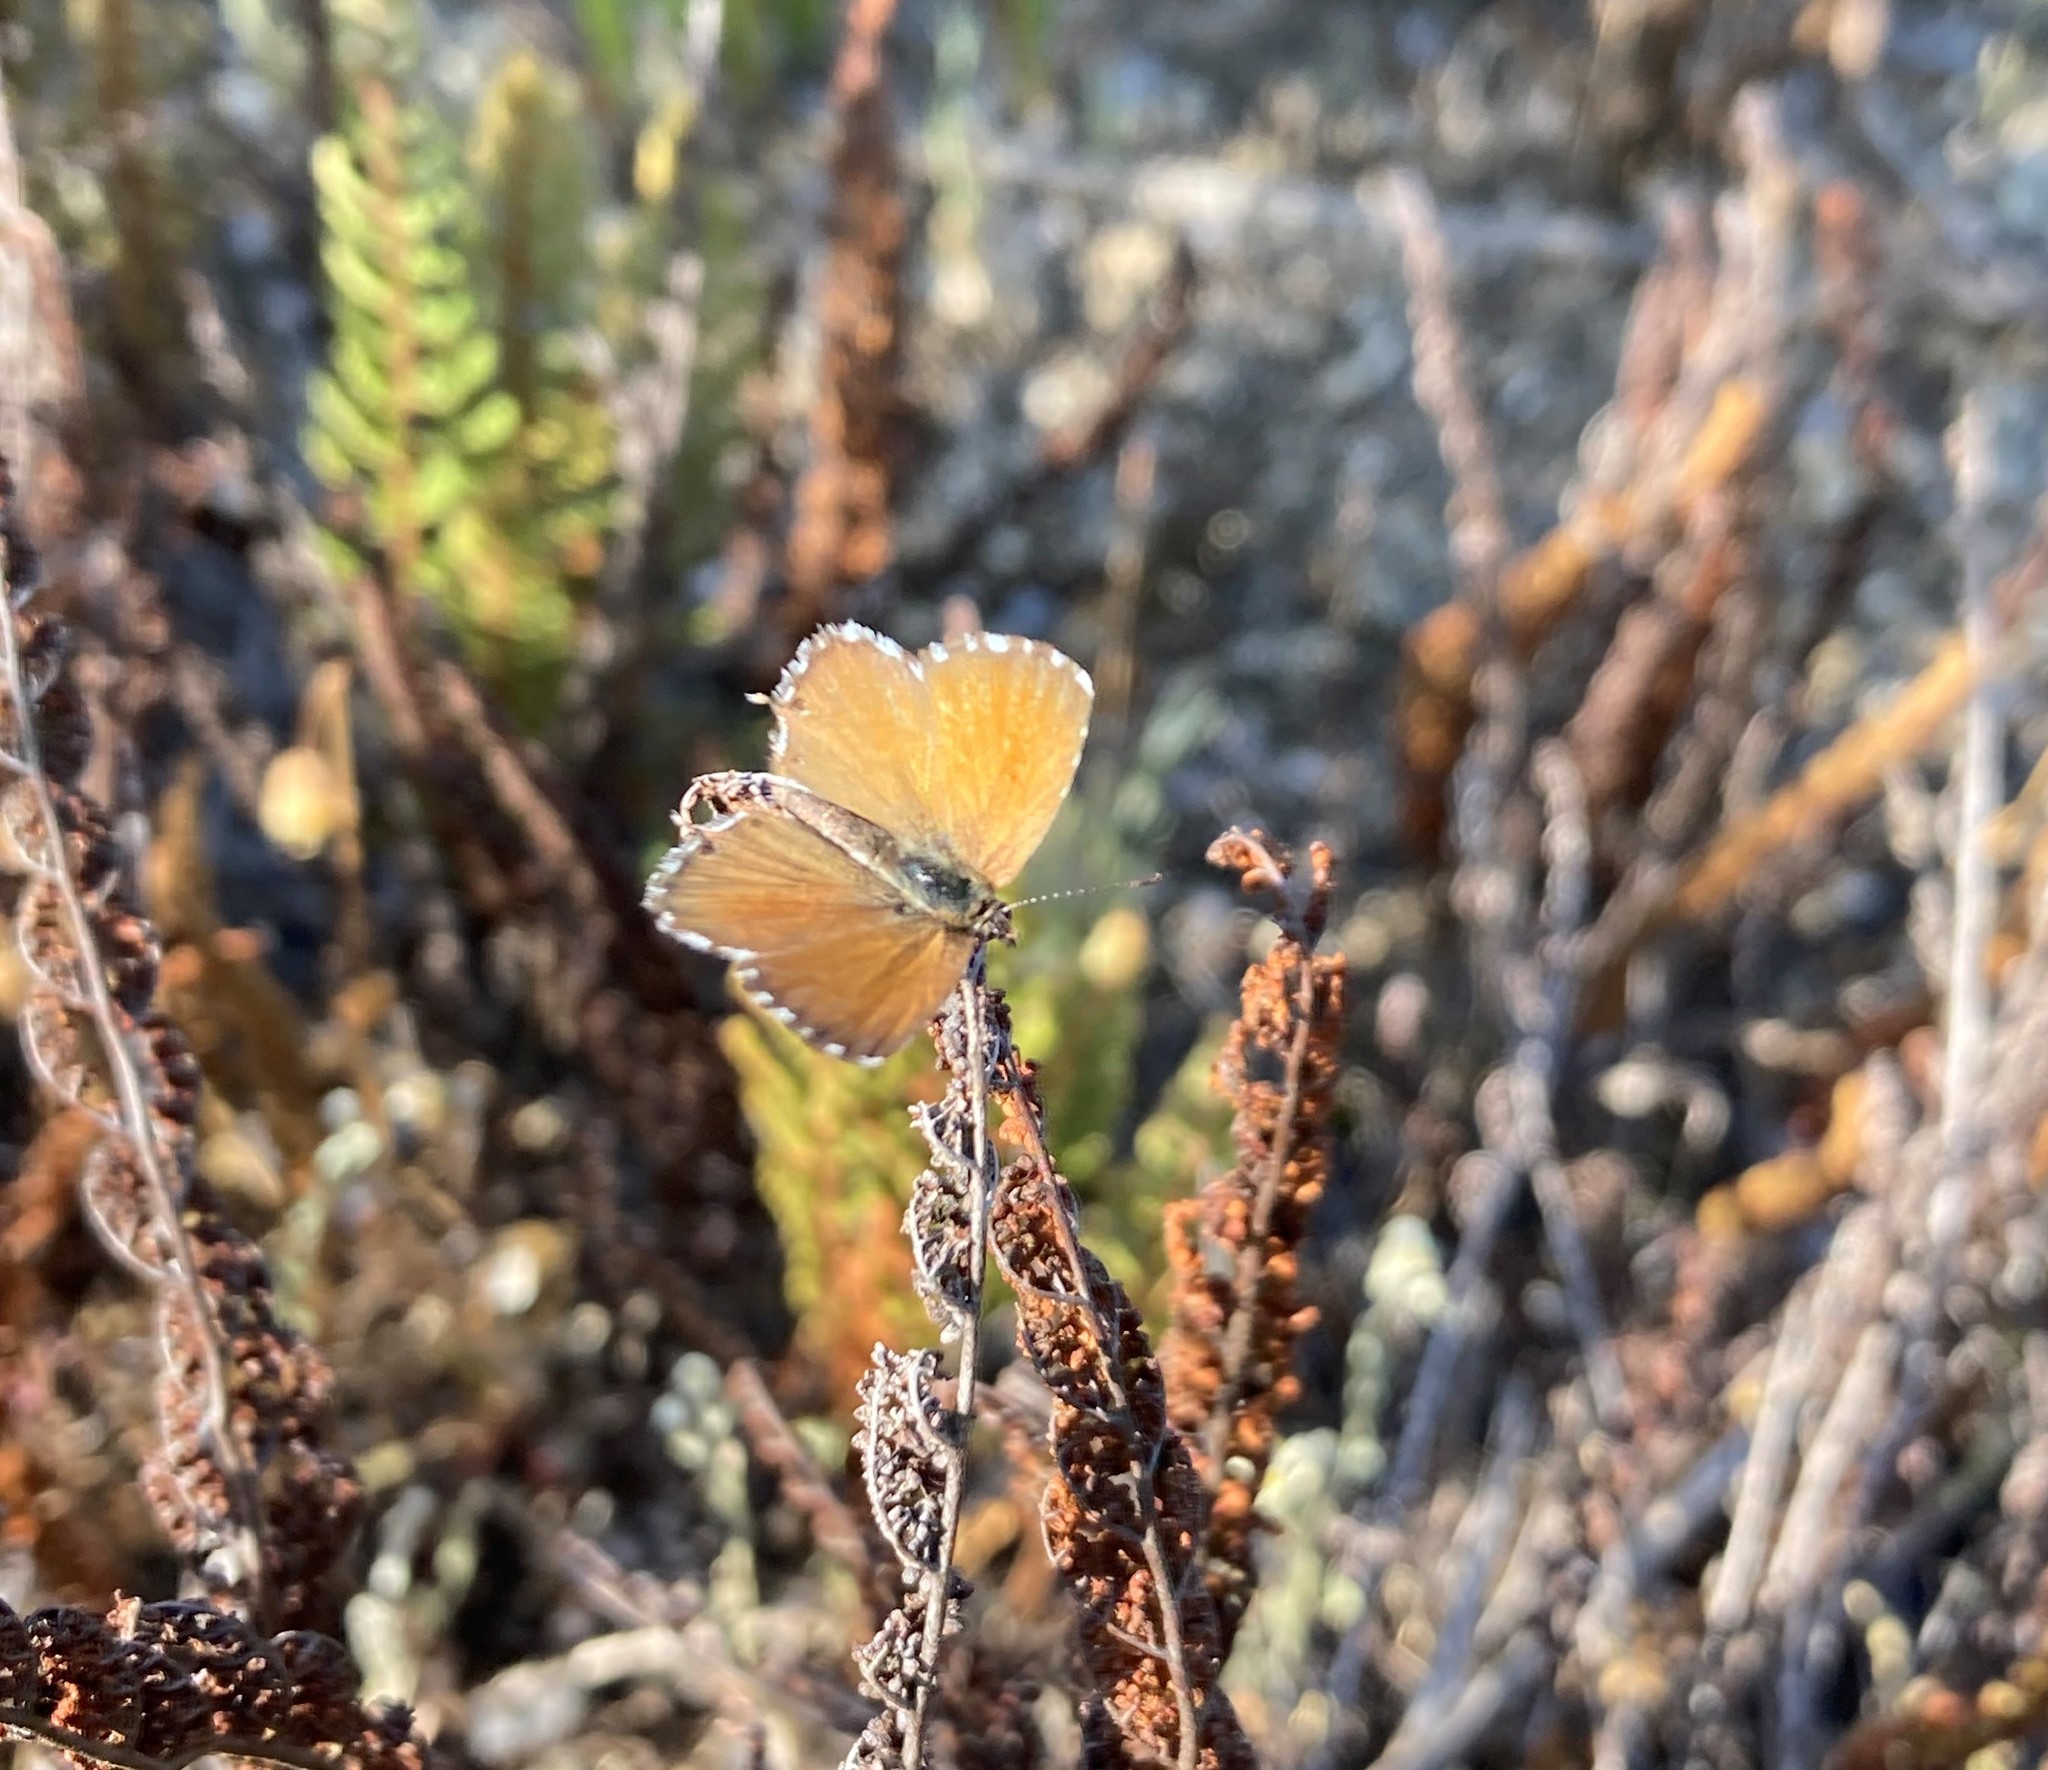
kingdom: Animalia
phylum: Arthropoda
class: Insecta
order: Lepidoptera
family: Lycaenidae
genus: Cacyreus
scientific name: Cacyreus dicksoni
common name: Dickson's geranium bronze
